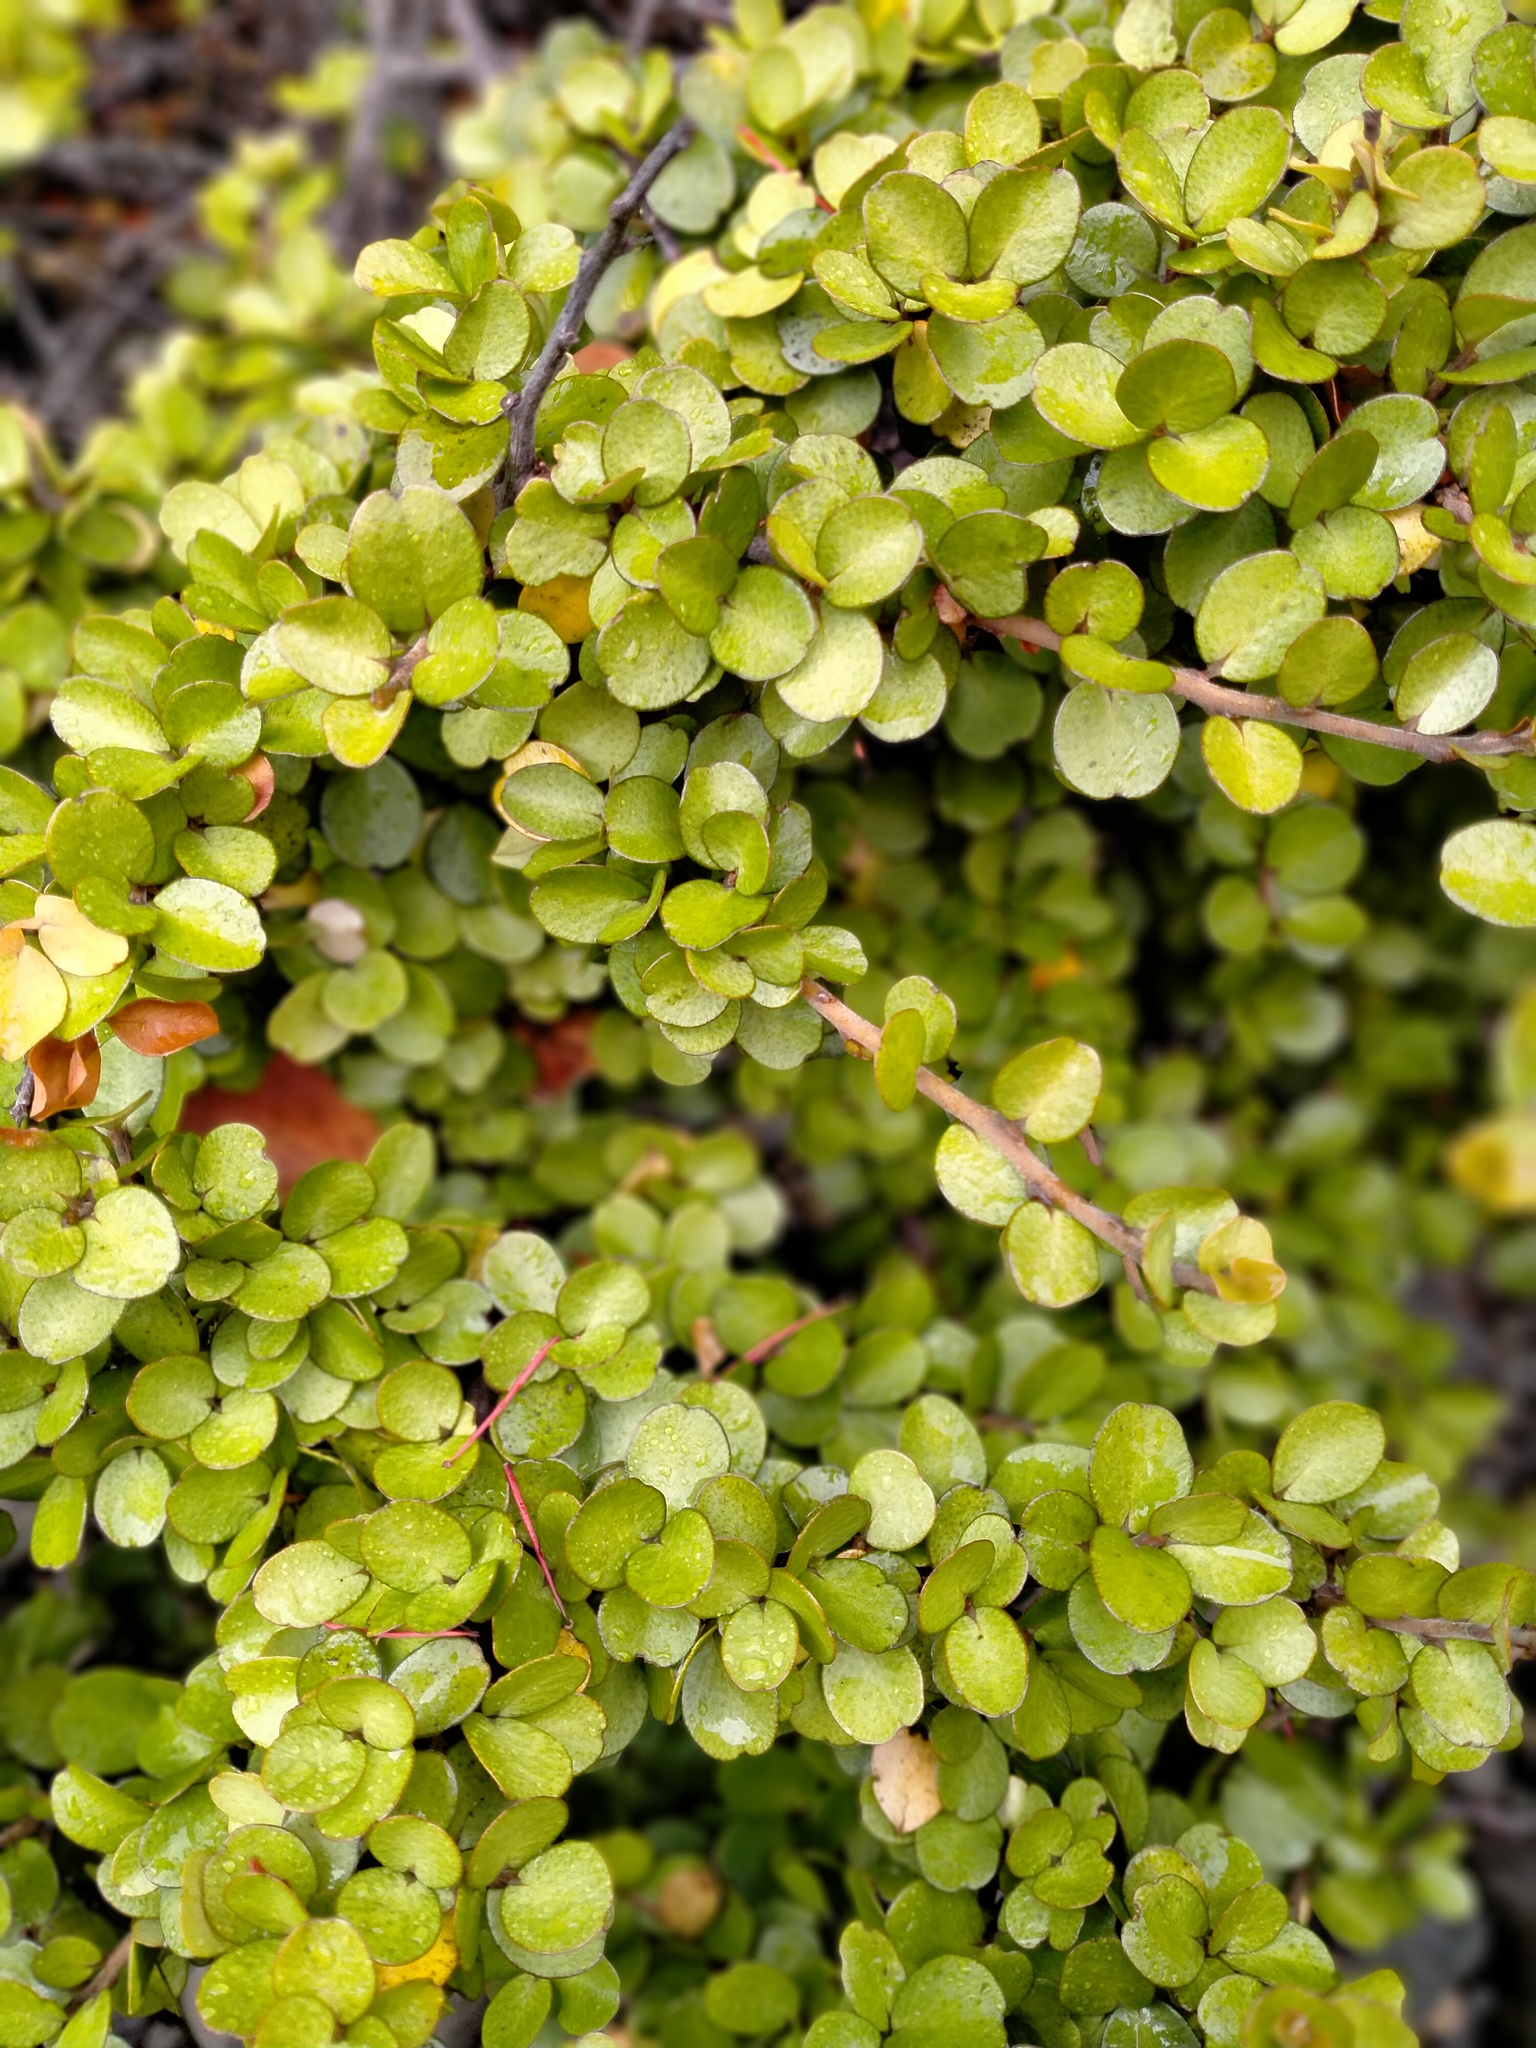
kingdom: Plantae
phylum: Tracheophyta
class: Magnoliopsida
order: Ericales
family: Primulaceae
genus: Myrsine
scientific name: Myrsine divaricata
